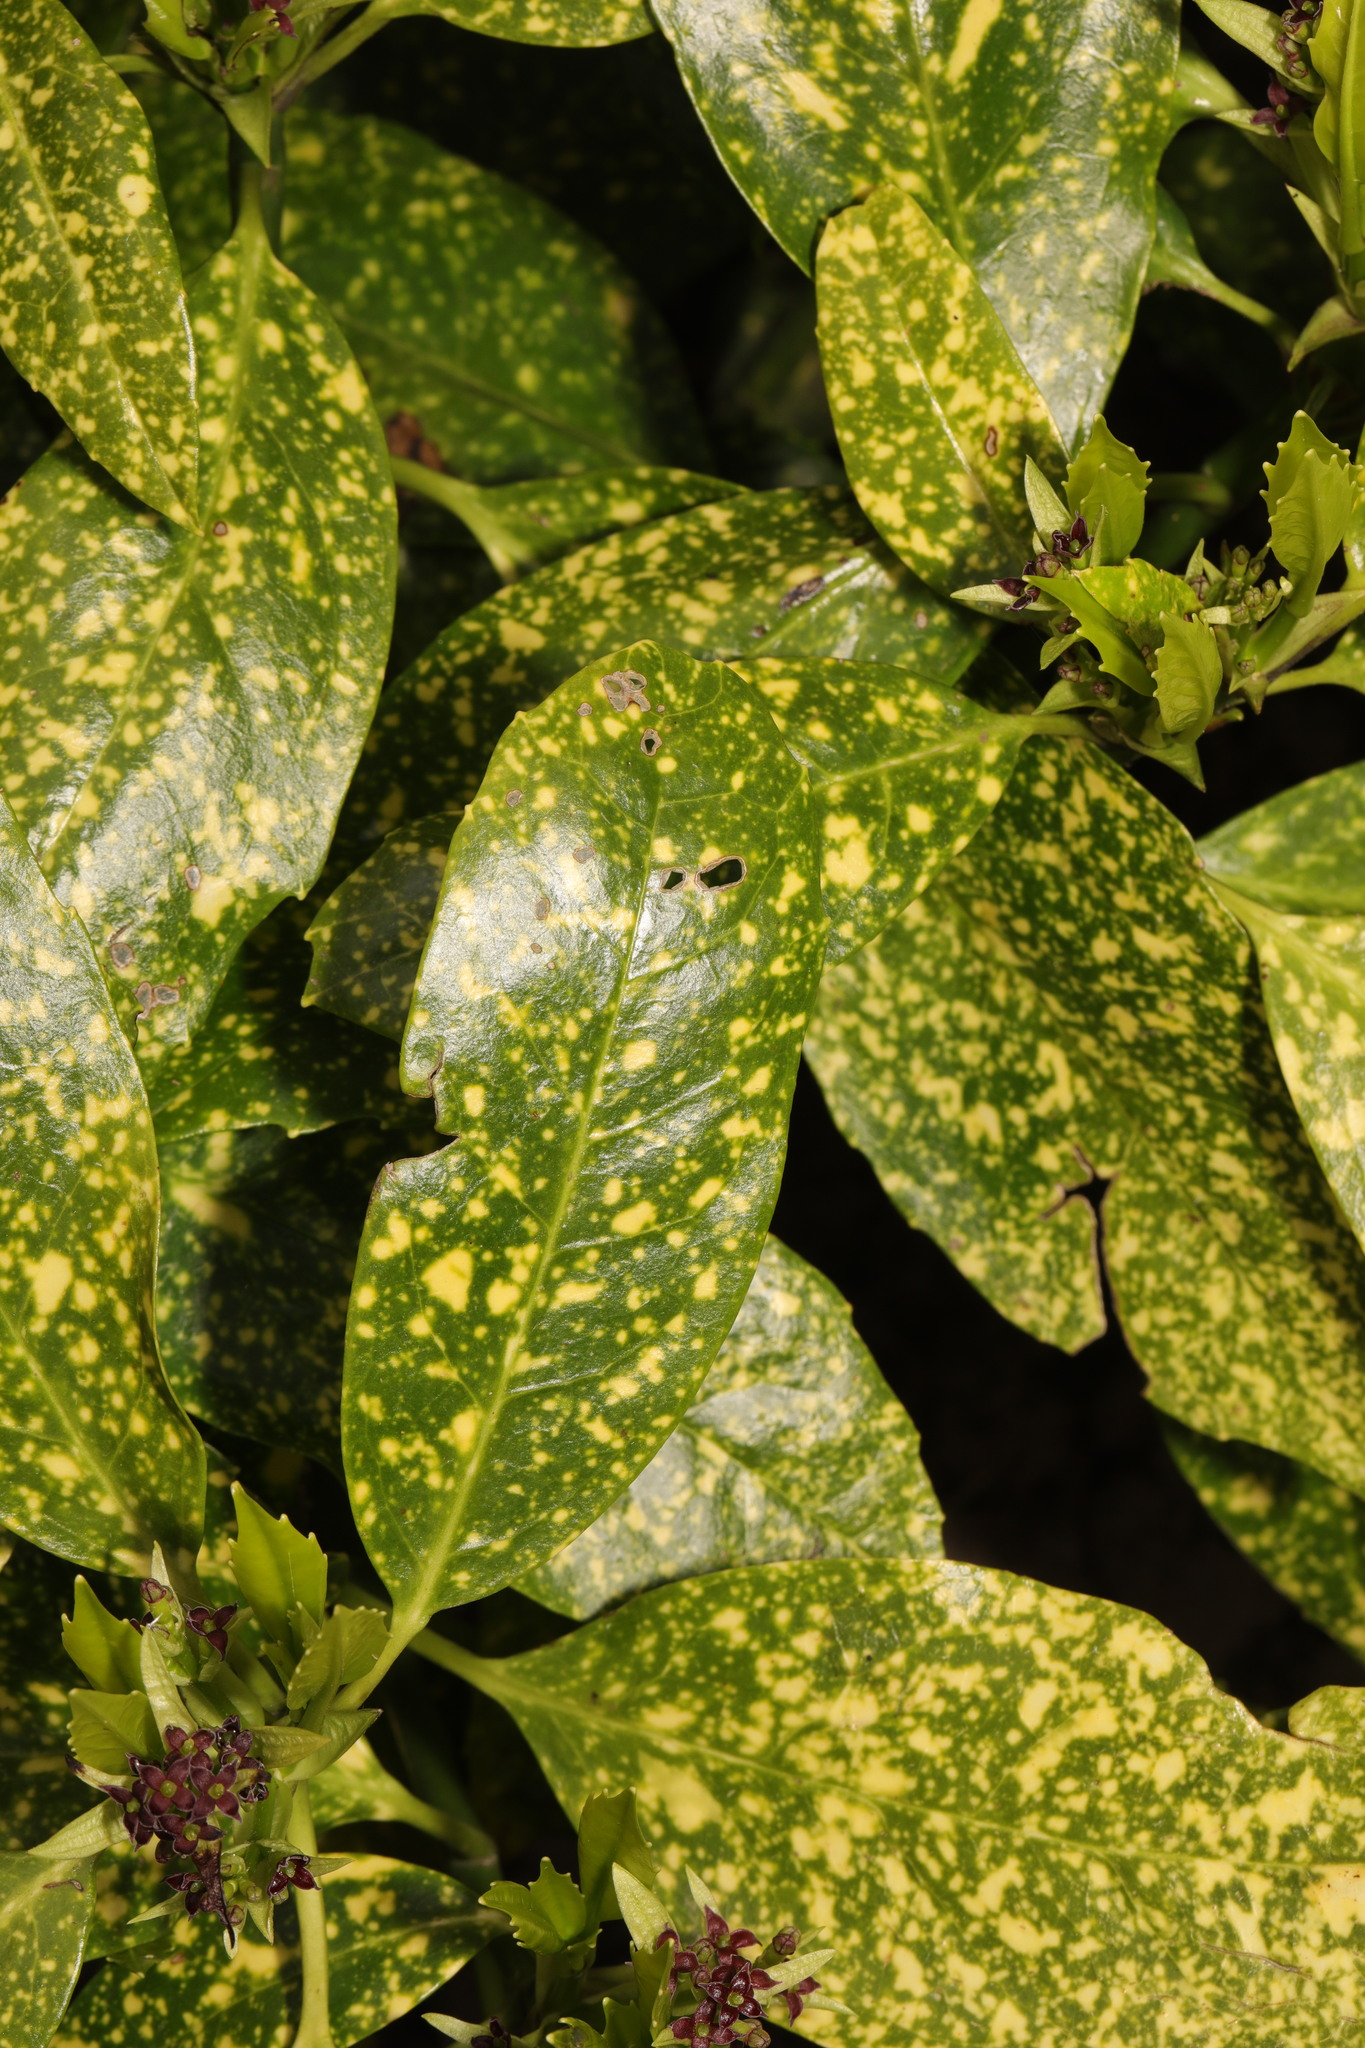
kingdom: Plantae
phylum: Tracheophyta
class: Magnoliopsida
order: Garryales
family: Garryaceae
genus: Aucuba
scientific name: Aucuba japonica
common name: Spotted-laurel
